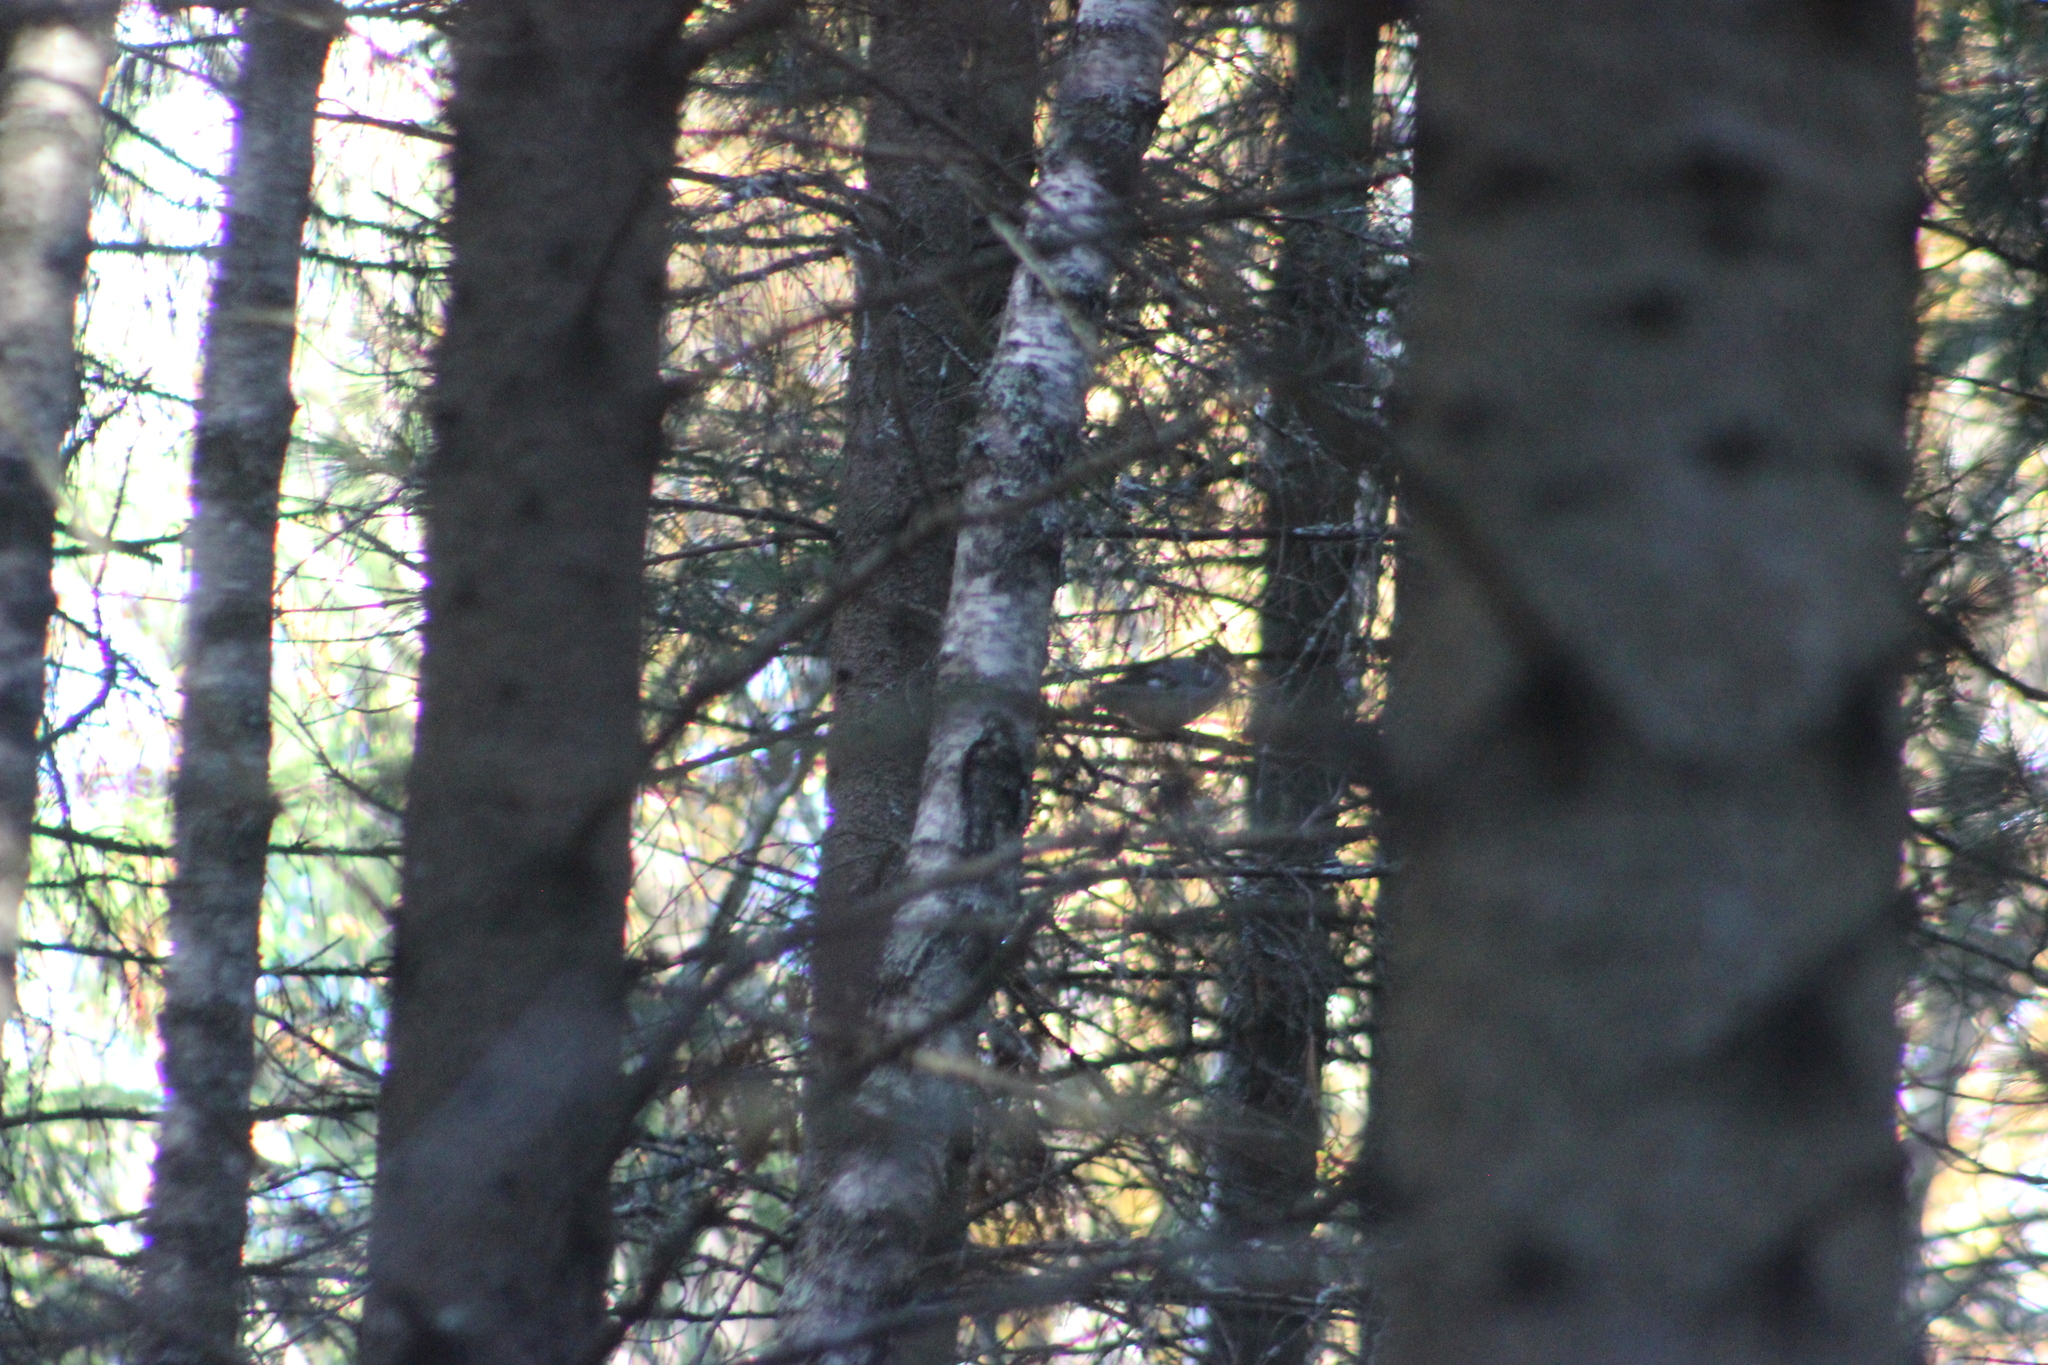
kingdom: Animalia
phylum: Chordata
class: Aves
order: Passeriformes
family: Corvidae
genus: Garrulus
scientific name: Garrulus glandarius
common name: Eurasian jay
